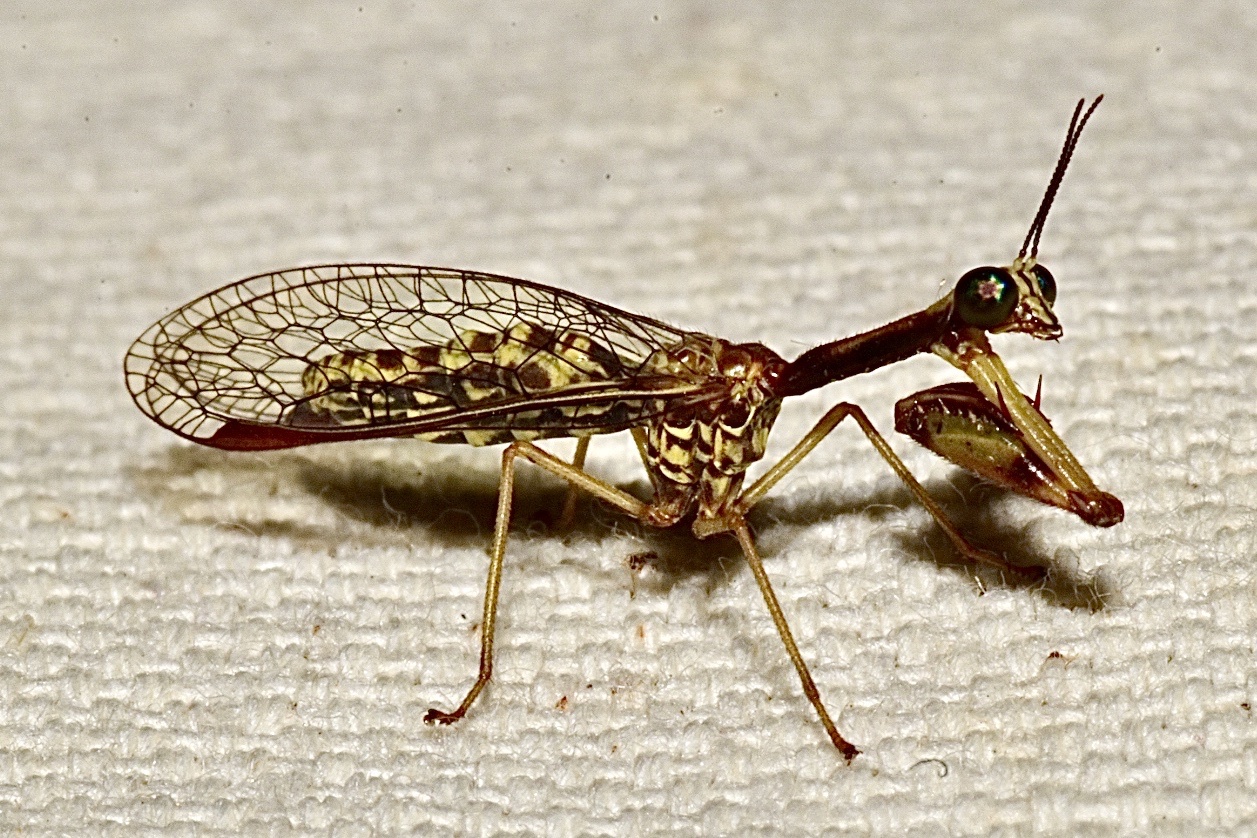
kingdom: Animalia
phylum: Arthropoda
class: Insecta
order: Neuroptera
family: Mantispidae
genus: Leptomantispa
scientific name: Leptomantispa pulchella
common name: Stevens's mantidfly
